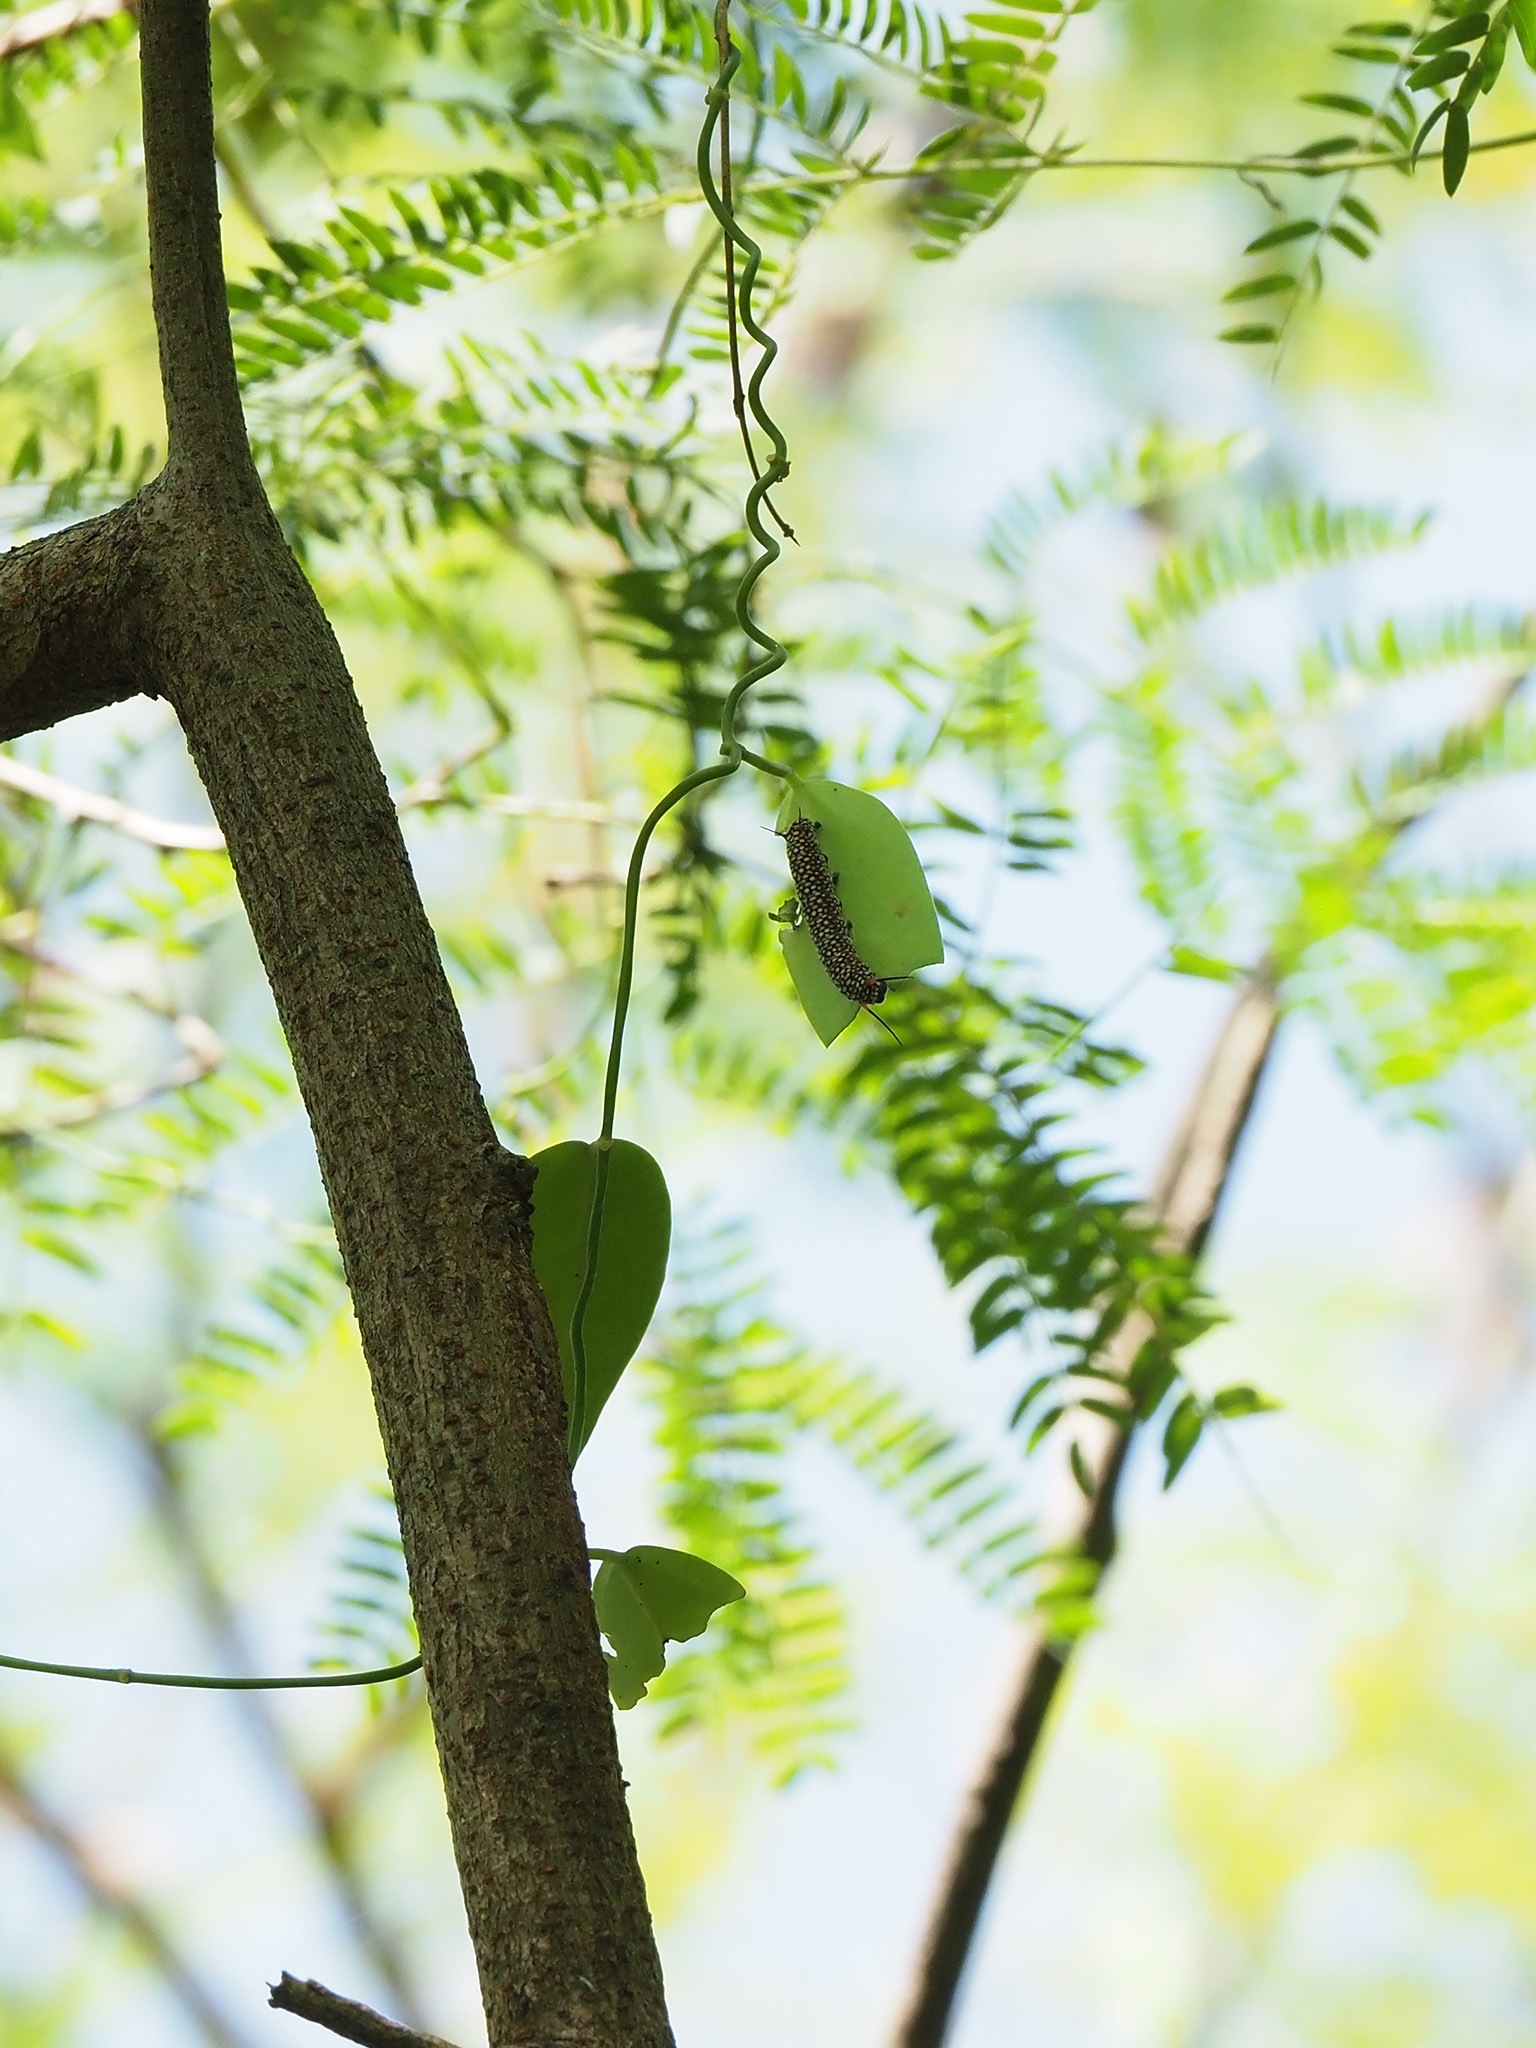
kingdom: Animalia
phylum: Arthropoda
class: Insecta
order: Lepidoptera
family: Nymphalidae
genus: Ideopsis
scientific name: Ideopsis vulgaris
